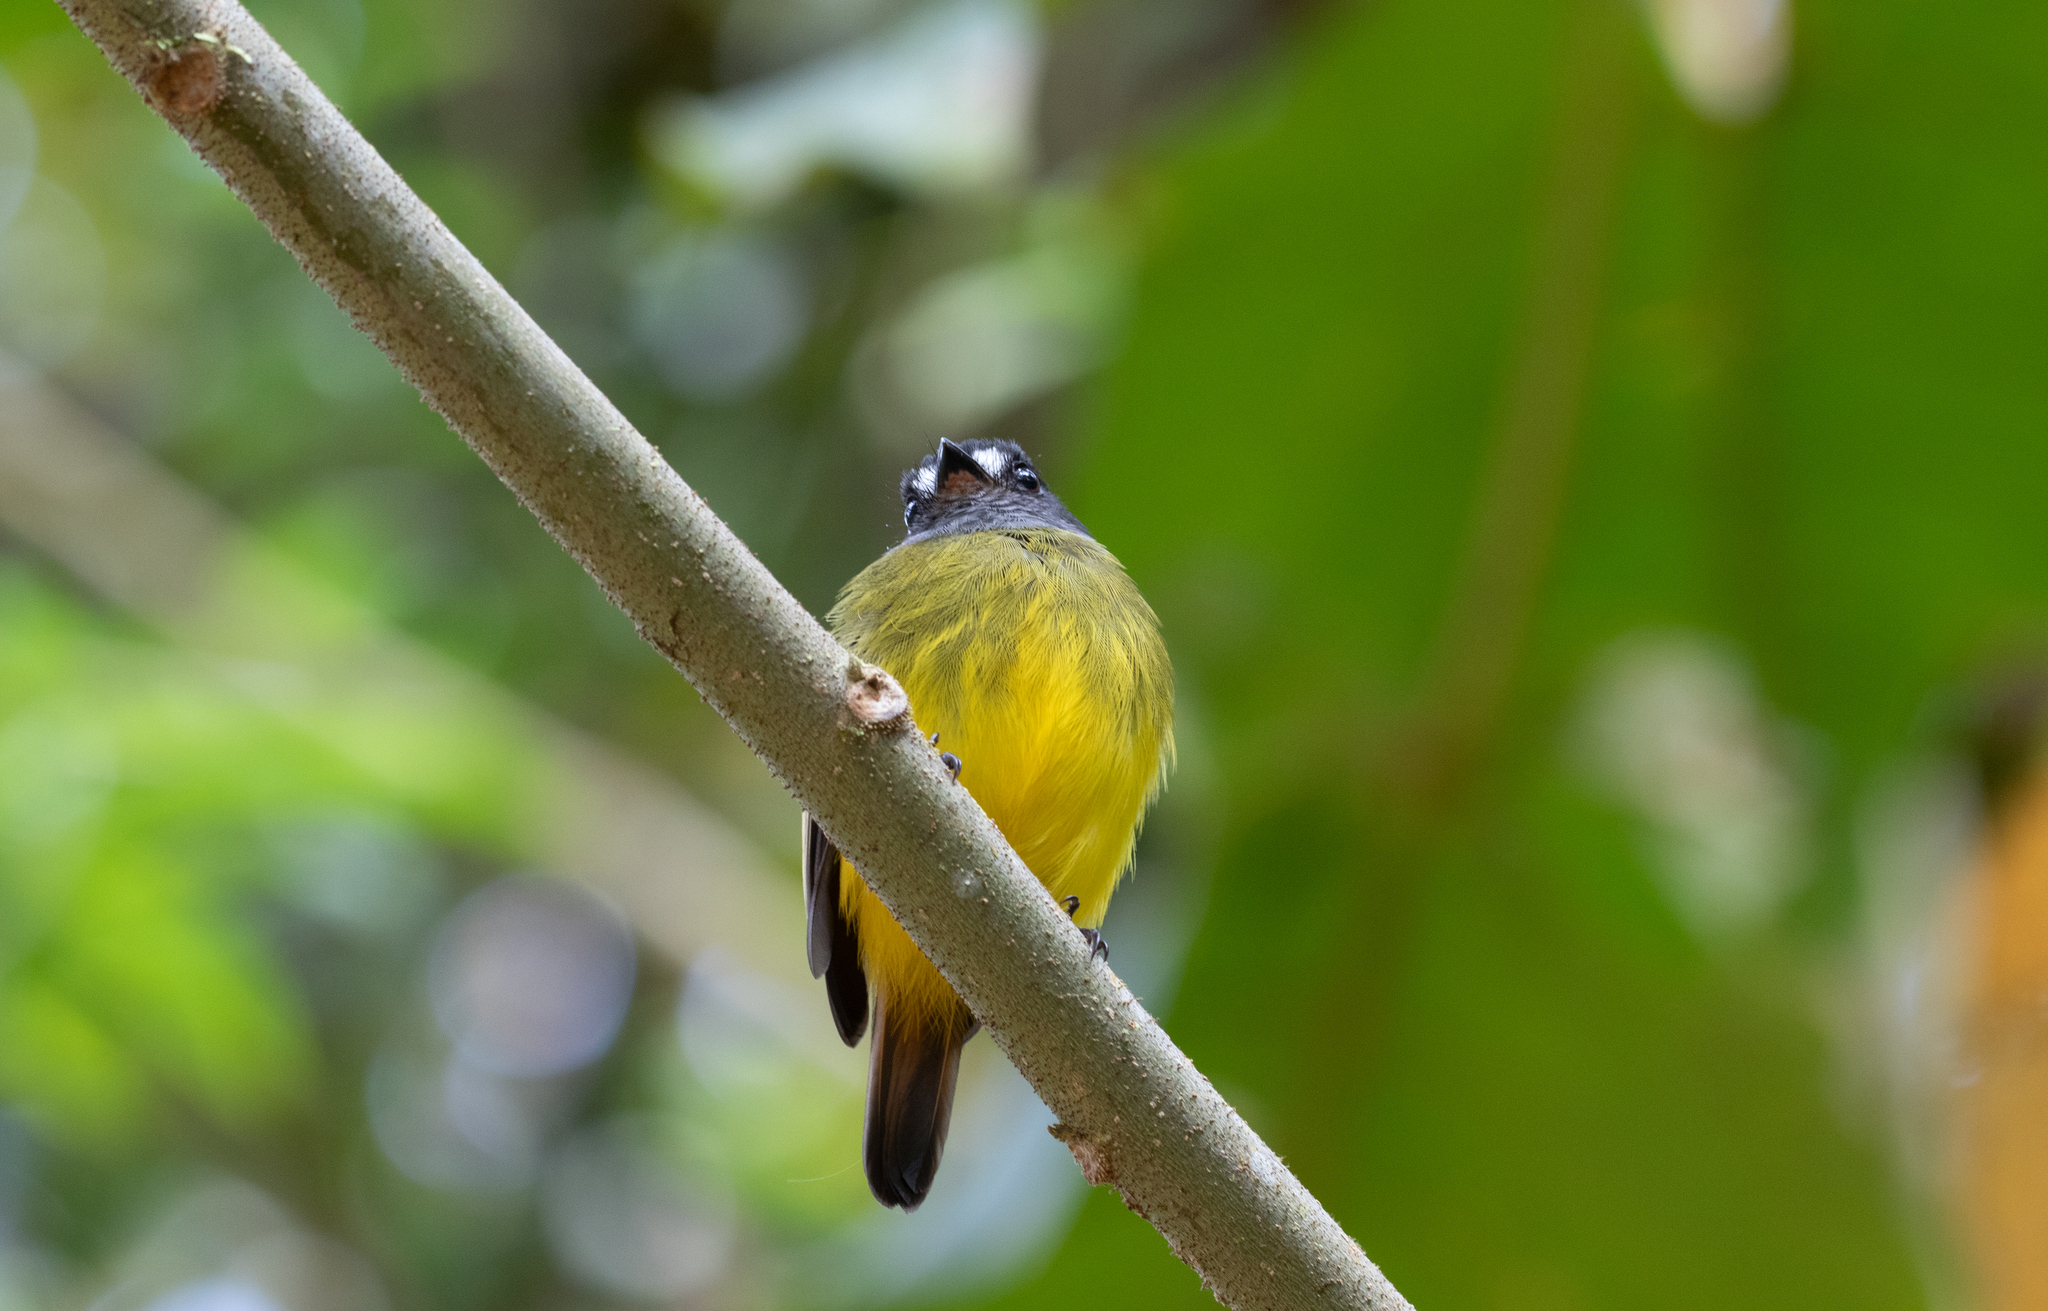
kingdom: Animalia
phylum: Chordata
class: Aves
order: Passeriformes
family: Tyrannidae
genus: Myiotriccus
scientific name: Myiotriccus ornatus
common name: Ornate flycatcher
